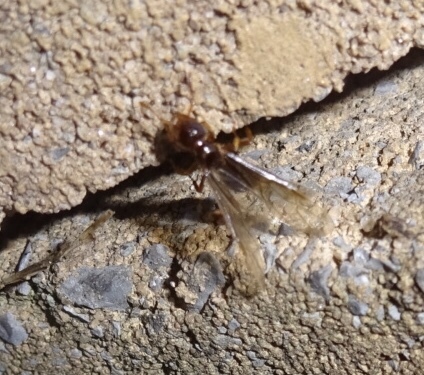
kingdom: Animalia
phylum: Arthropoda
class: Insecta
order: Hymenoptera
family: Formicidae
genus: Lasius
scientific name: Lasius claviger
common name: Common citronella ant
